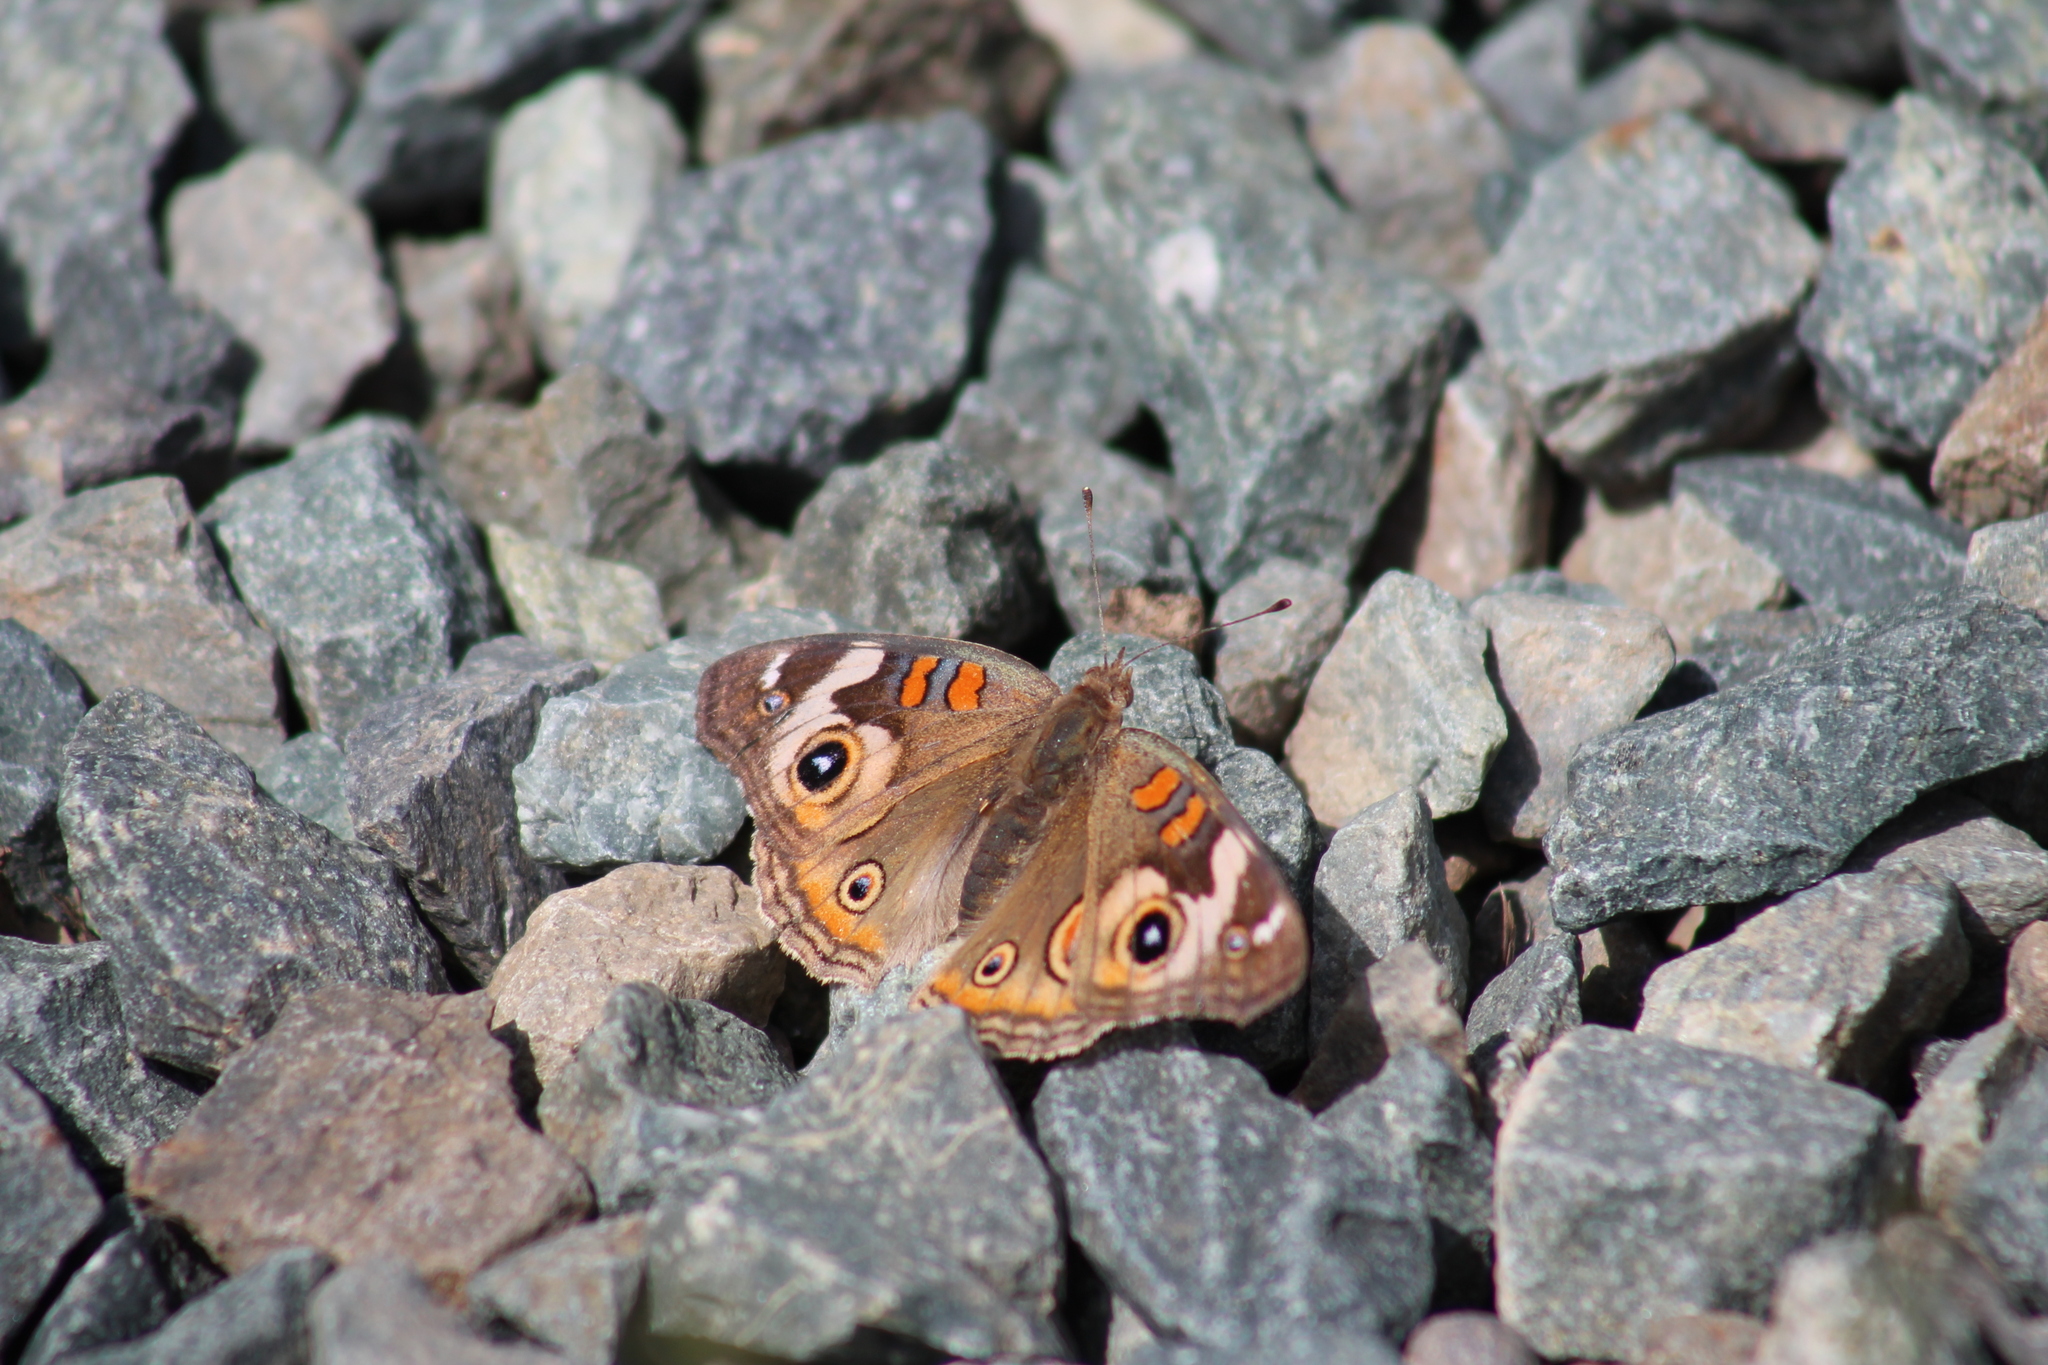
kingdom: Animalia
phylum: Arthropoda
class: Insecta
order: Lepidoptera
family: Nymphalidae
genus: Junonia
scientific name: Junonia grisea
